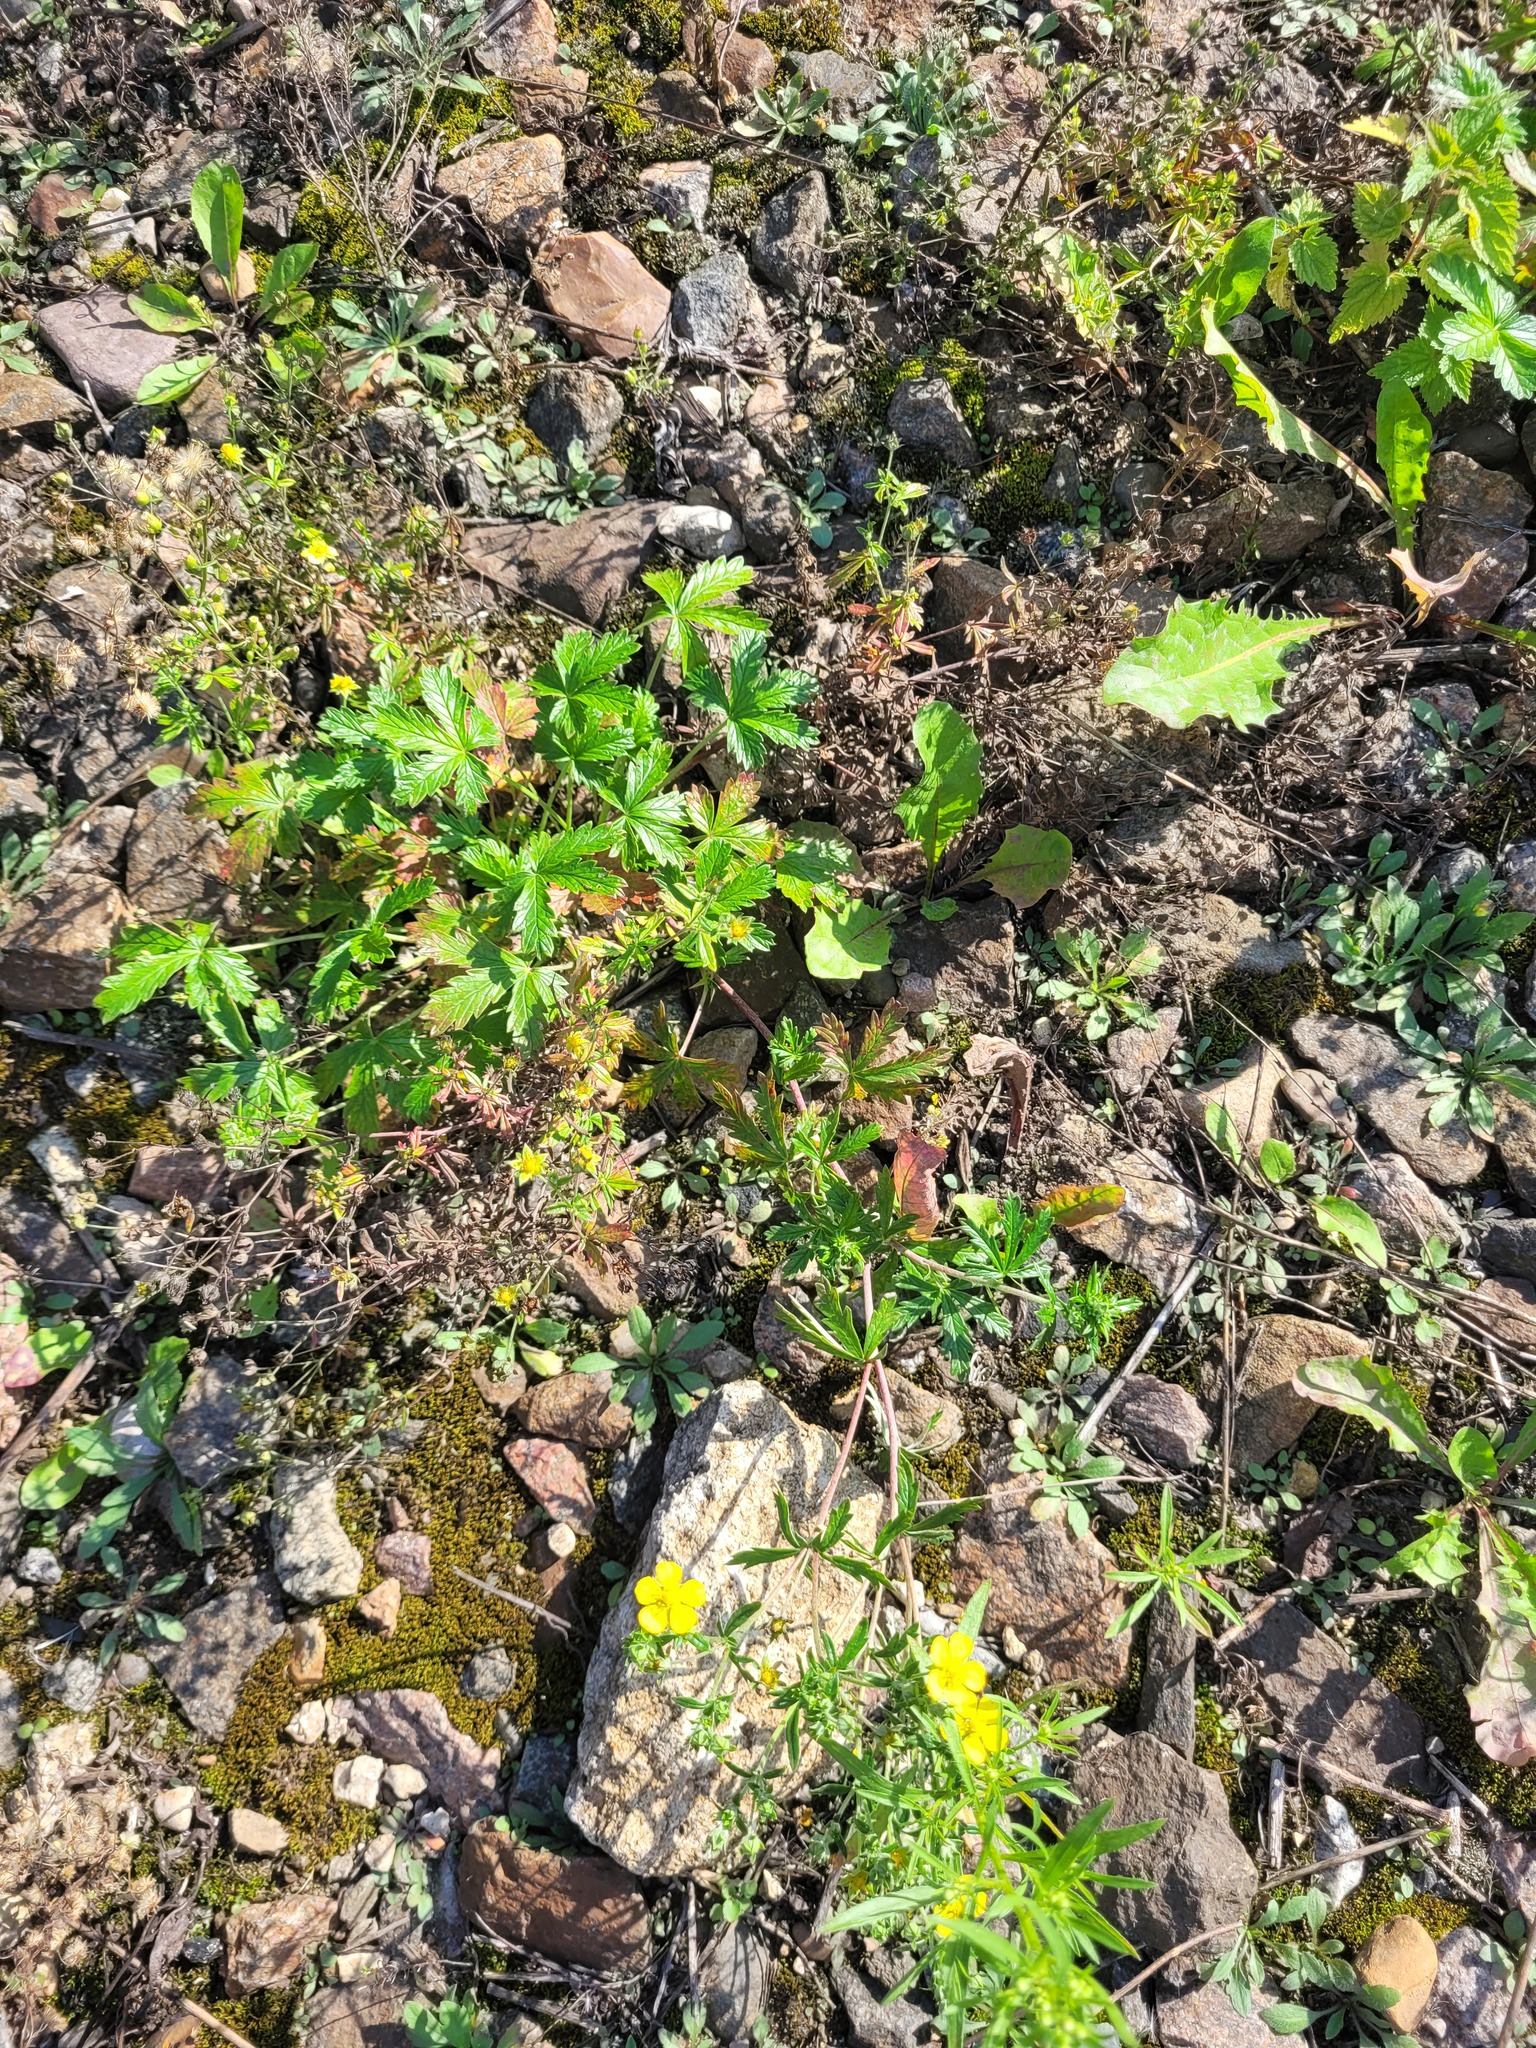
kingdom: Plantae
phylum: Tracheophyta
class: Magnoliopsida
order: Rosales
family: Rosaceae
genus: Potentilla
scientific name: Potentilla argentea
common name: Hoary cinquefoil
